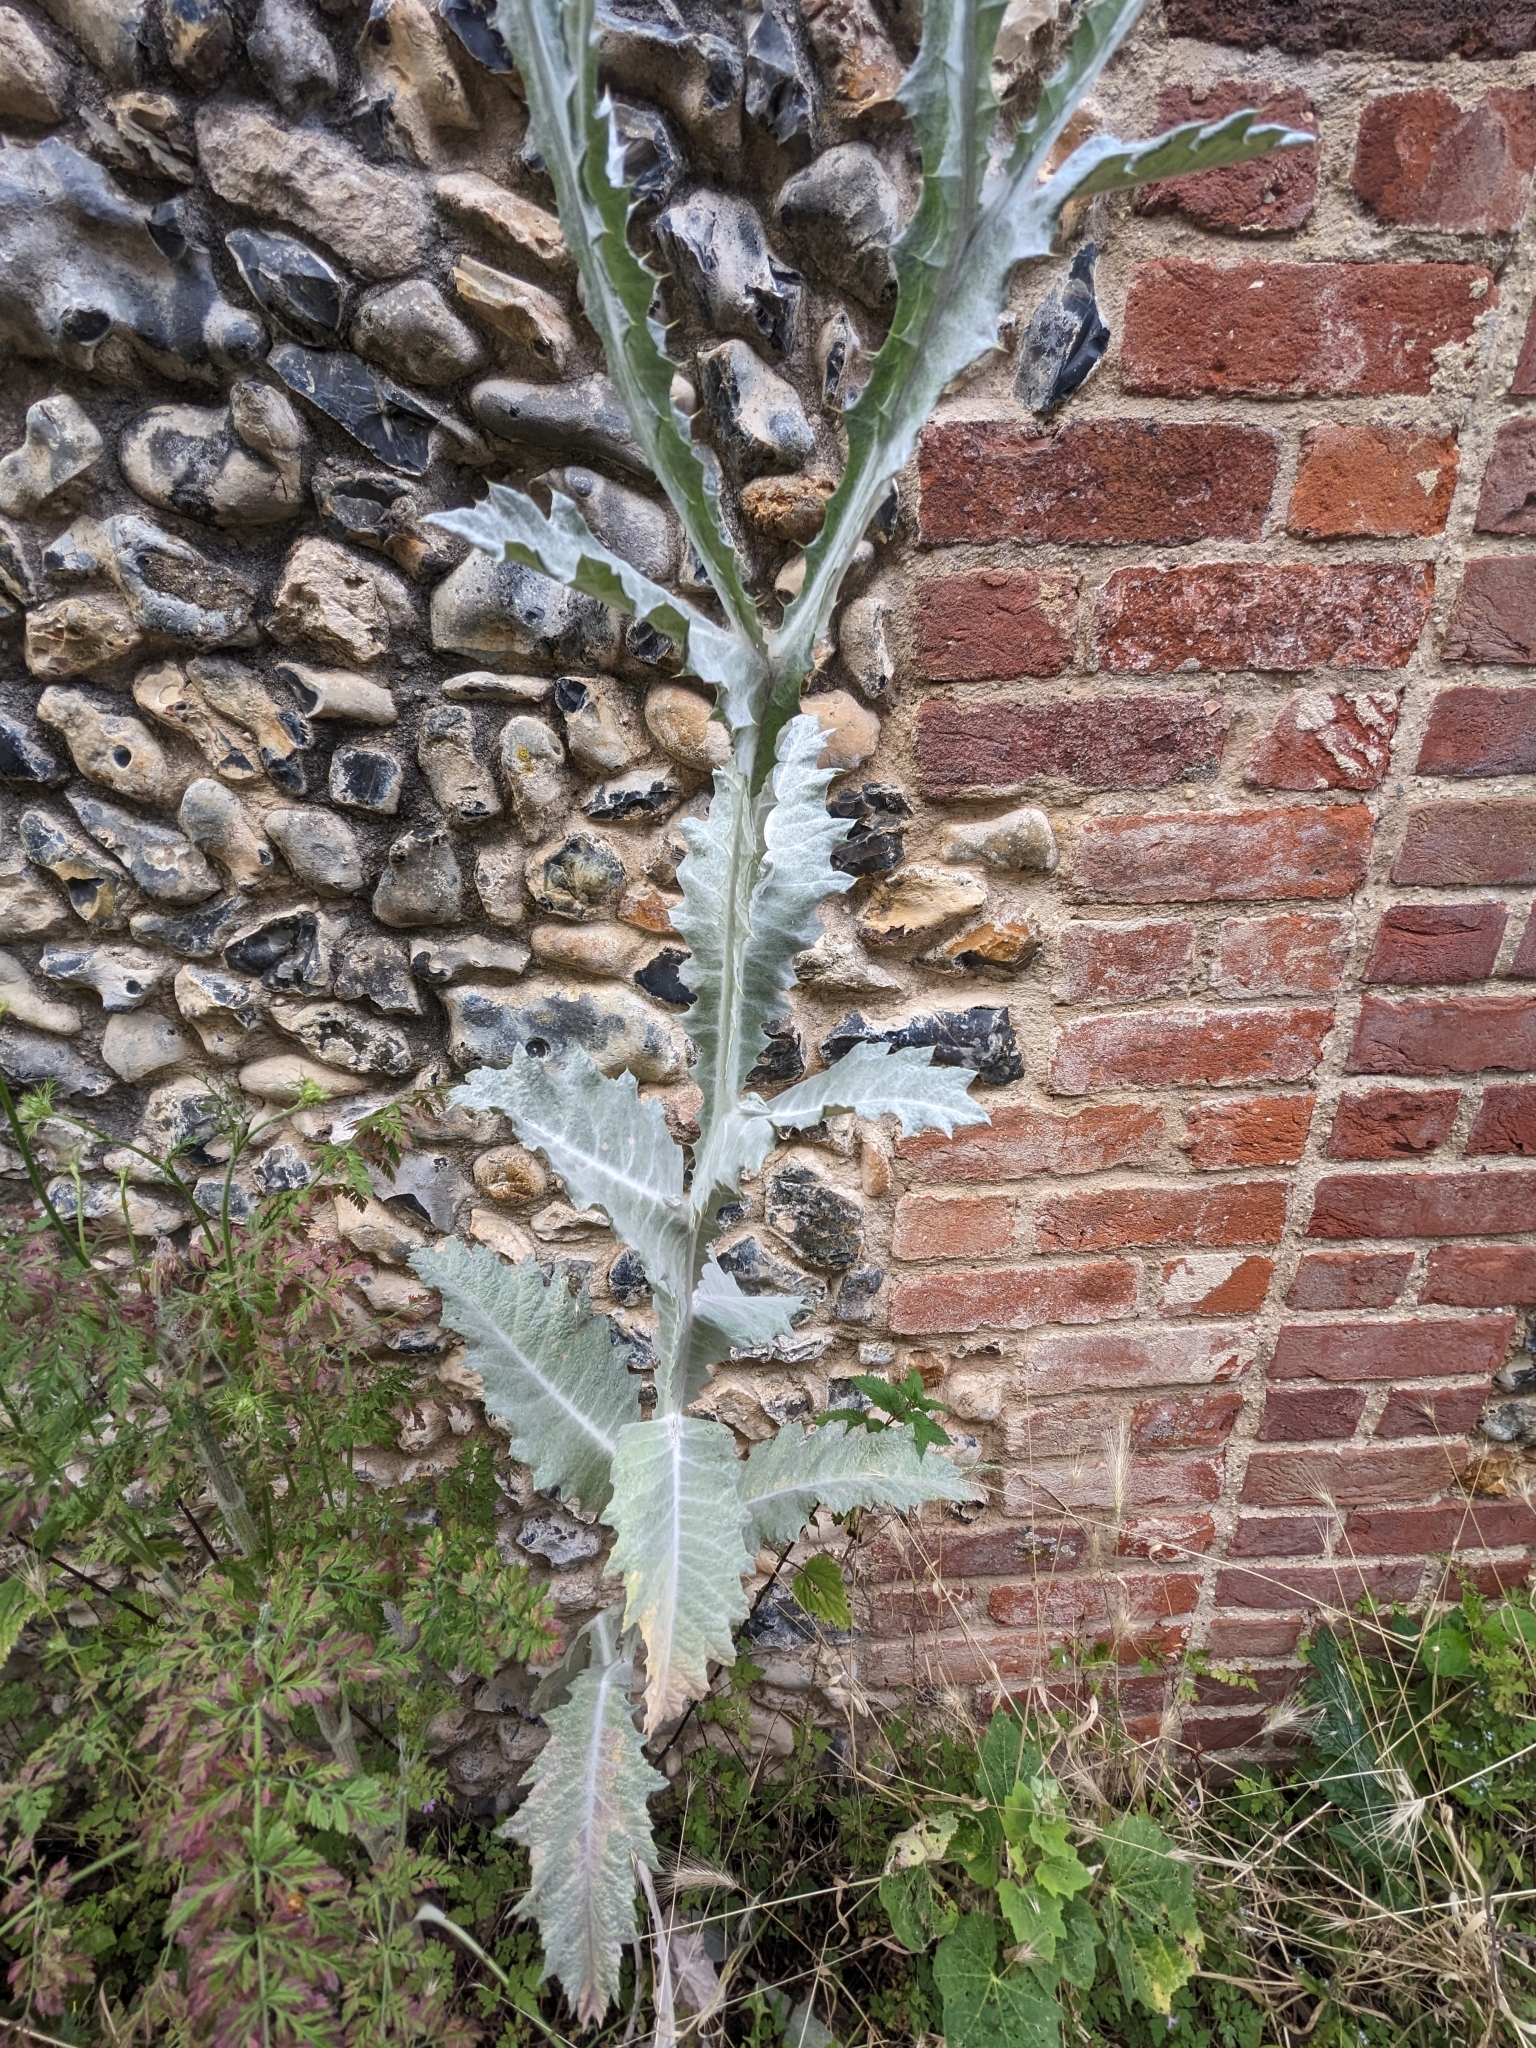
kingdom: Plantae
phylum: Tracheophyta
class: Magnoliopsida
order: Asterales
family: Asteraceae
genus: Onopordum
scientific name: Onopordum acanthium
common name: Scotch thistle
